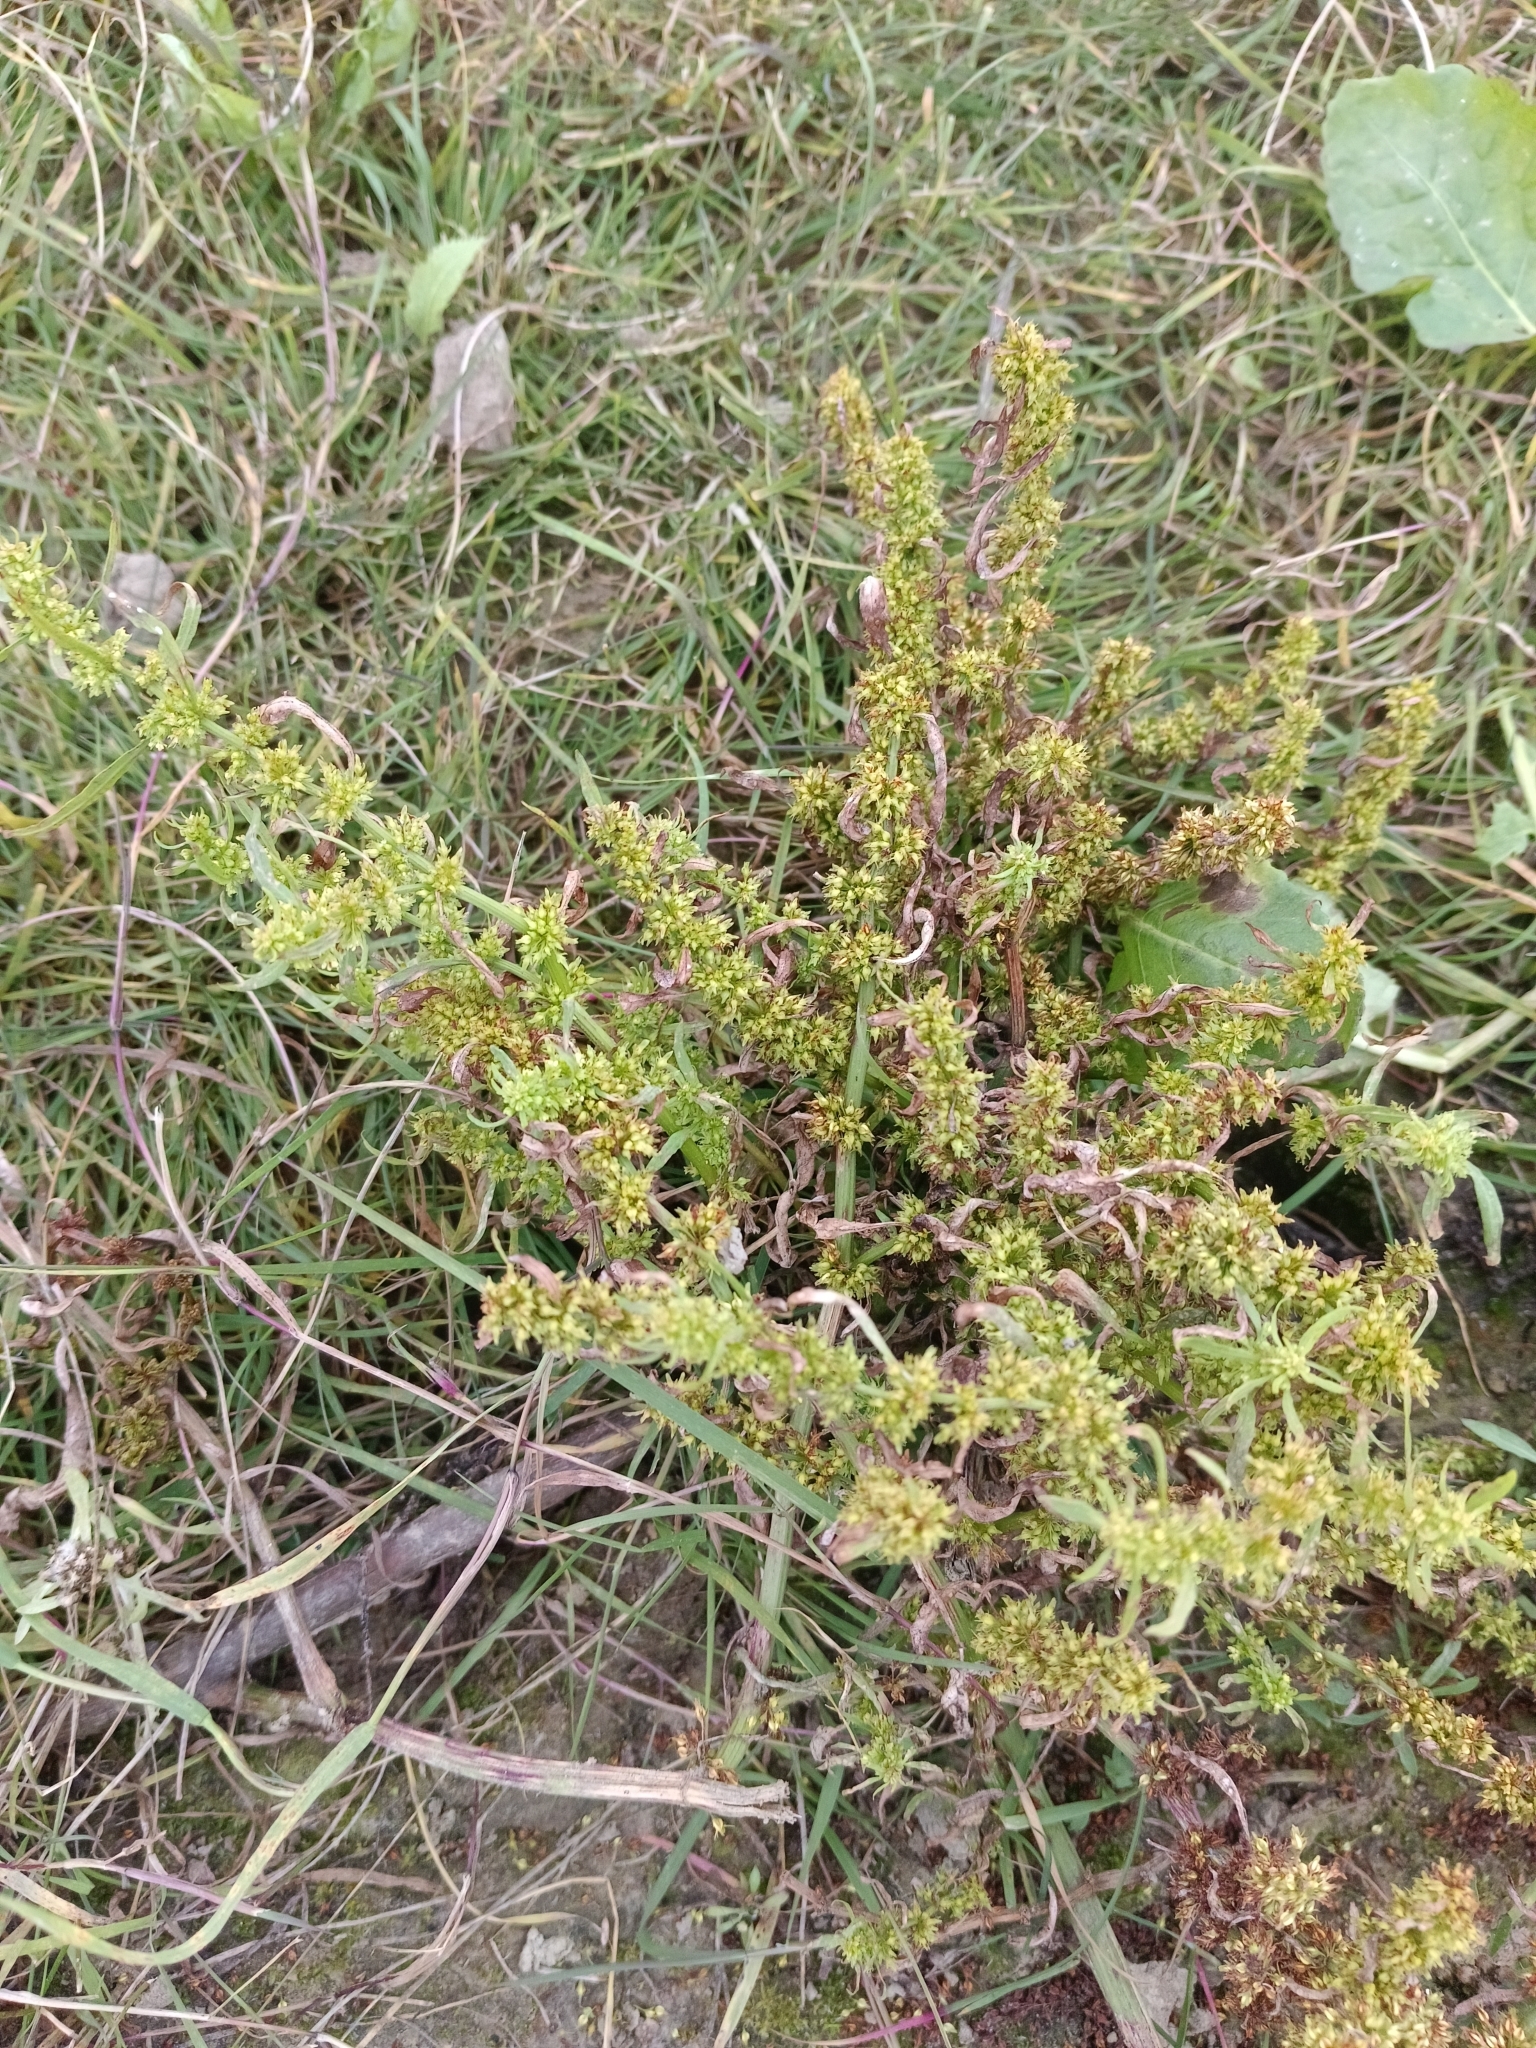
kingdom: Plantae
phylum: Tracheophyta
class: Magnoliopsida
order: Caryophyllales
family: Polygonaceae
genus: Rumex
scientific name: Rumex maritimus
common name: Golden dock
